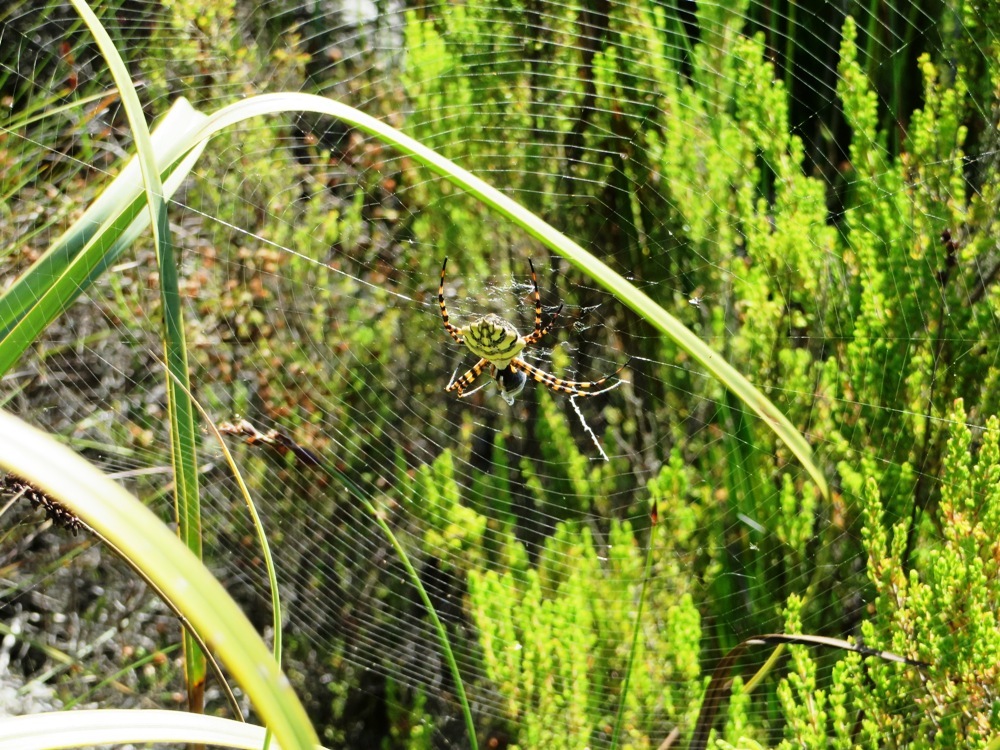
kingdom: Animalia
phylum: Arthropoda
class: Arachnida
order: Araneae
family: Araneidae
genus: Argiope
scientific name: Argiope australis
